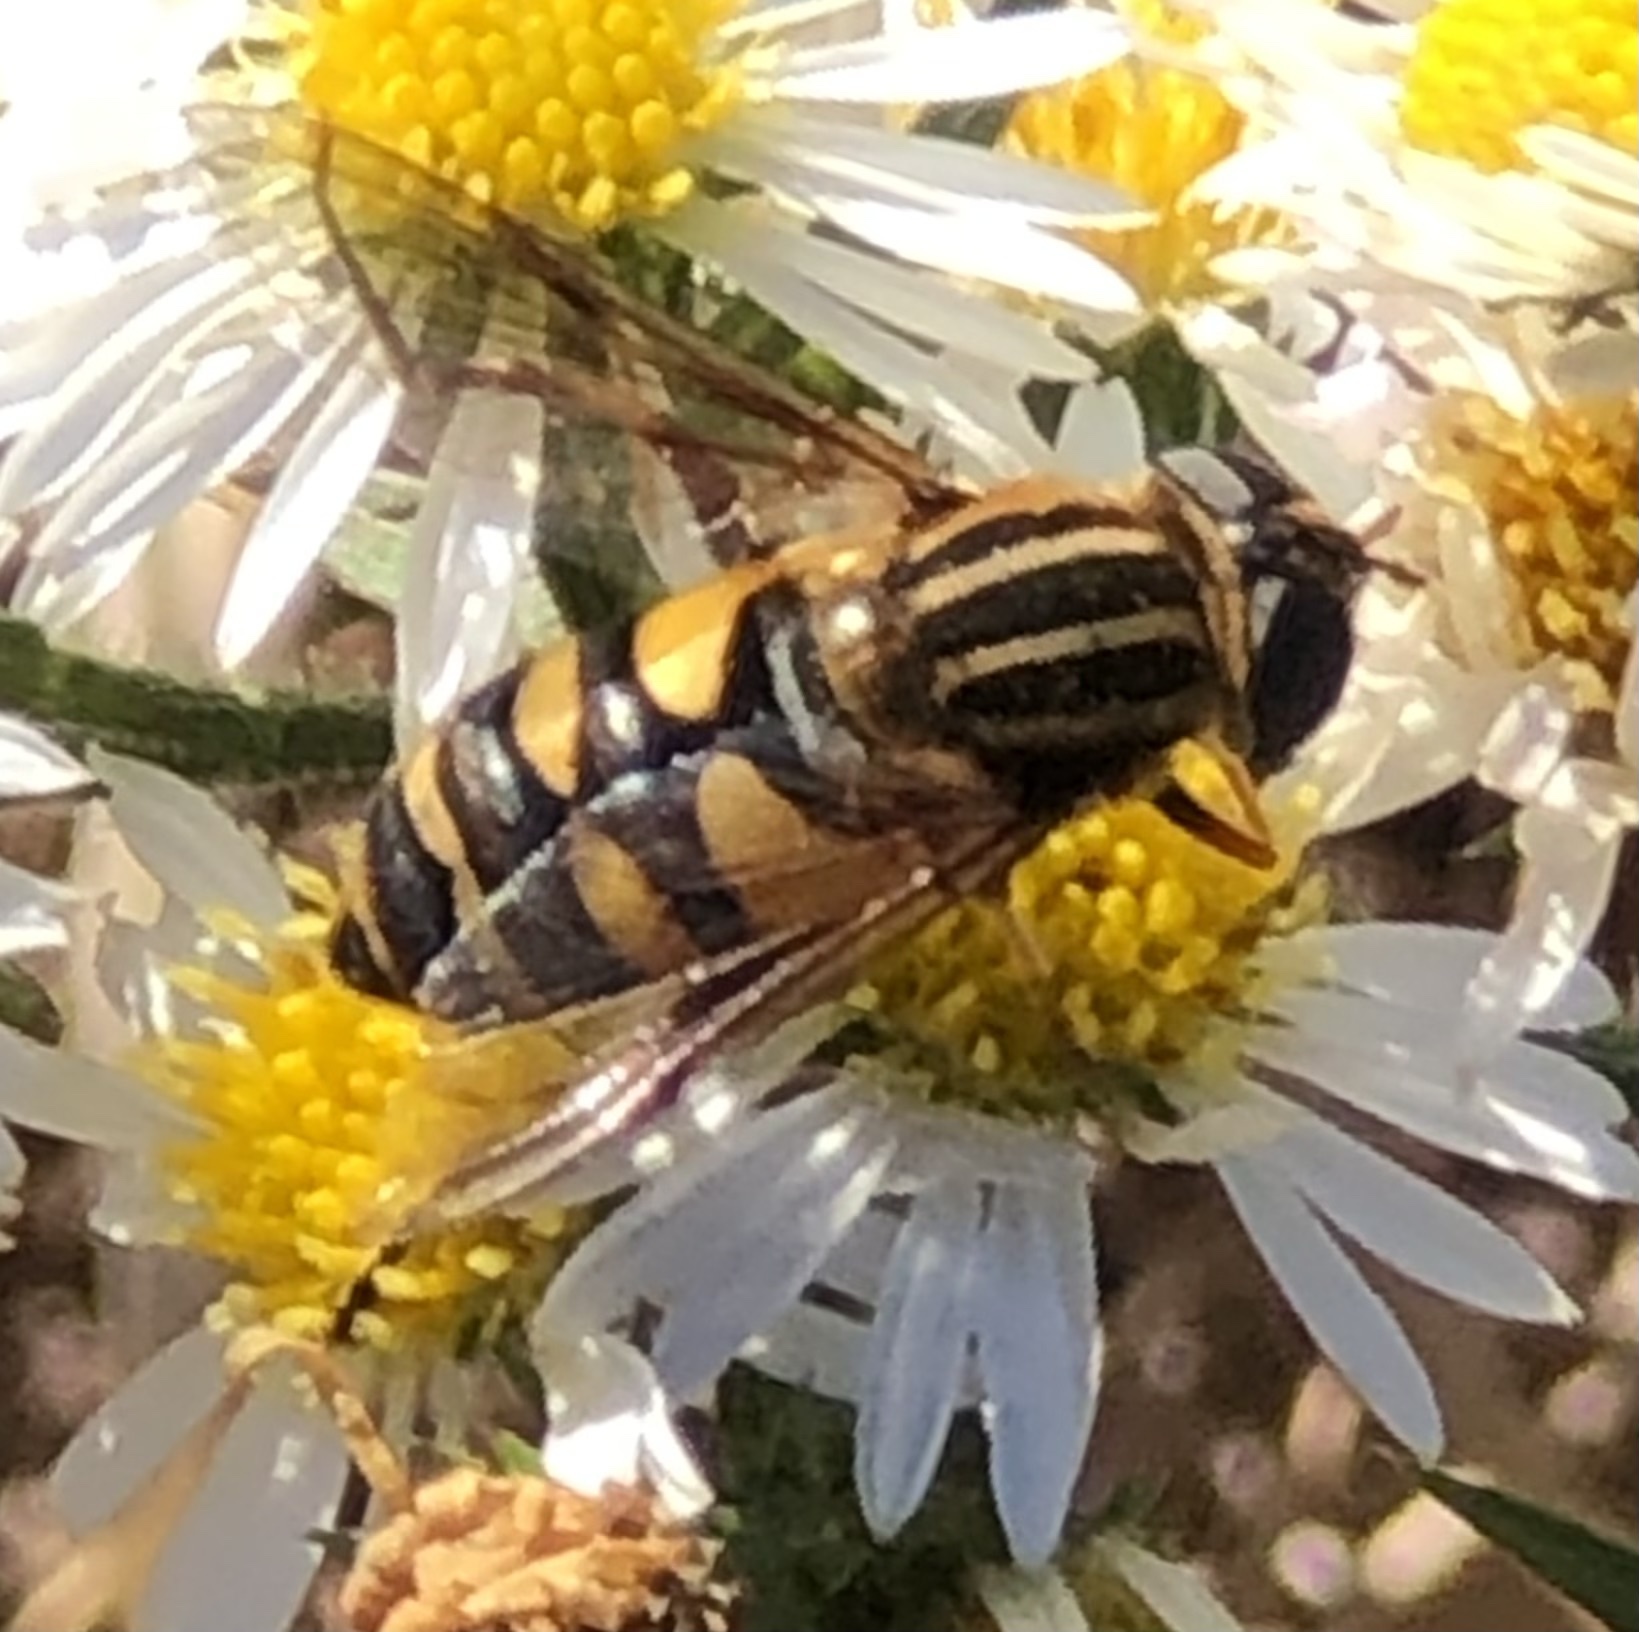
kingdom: Animalia
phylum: Arthropoda
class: Insecta
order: Diptera
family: Syrphidae
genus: Helophilus
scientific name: Helophilus fasciatus
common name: Narrow-headed marsh fly
